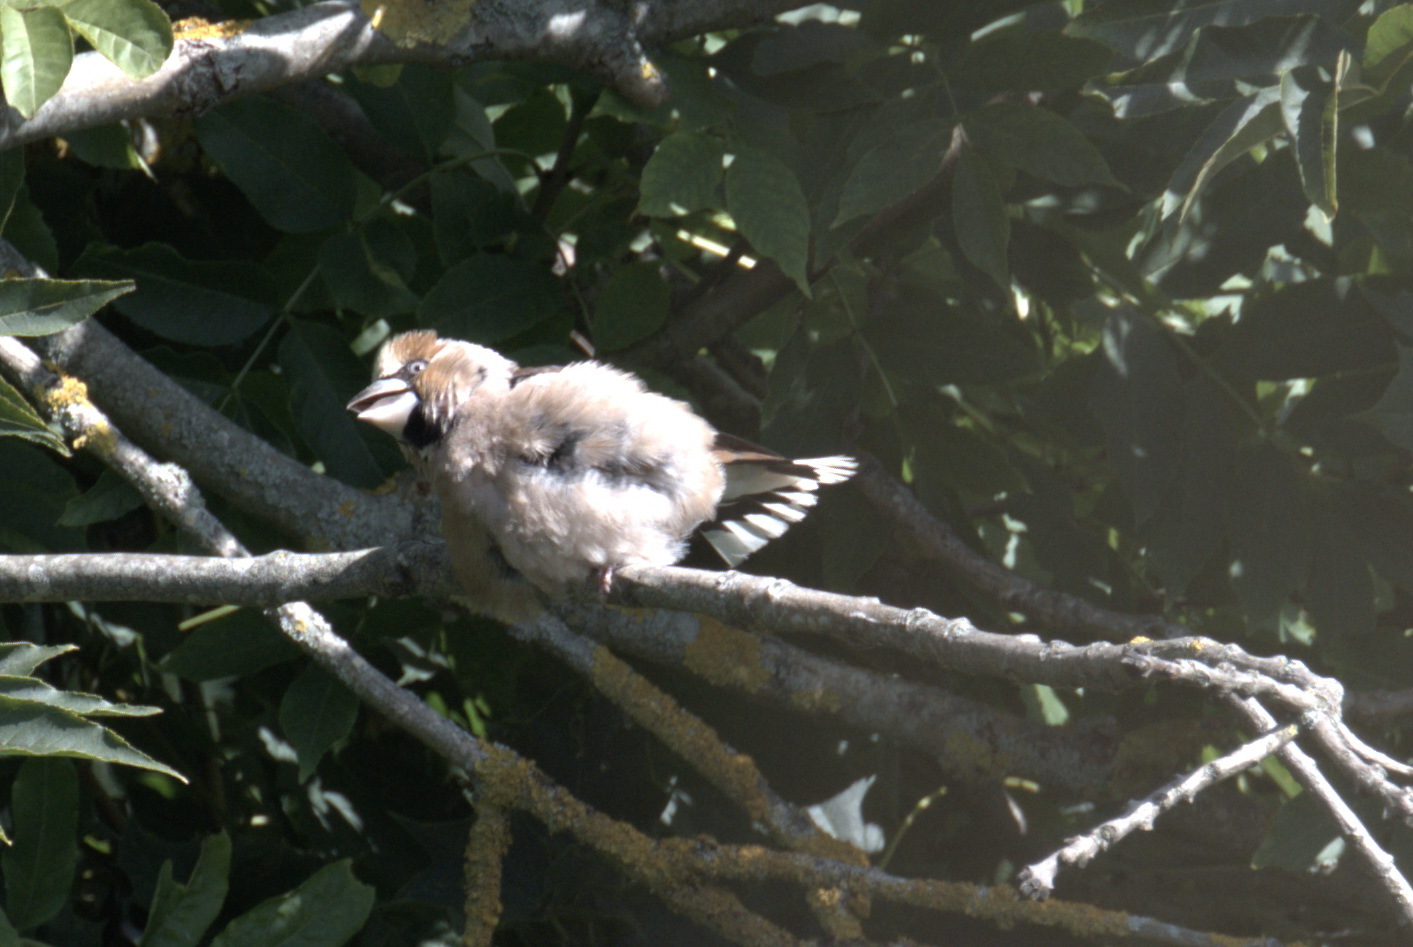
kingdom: Animalia
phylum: Chordata
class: Aves
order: Passeriformes
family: Fringillidae
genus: Coccothraustes
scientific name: Coccothraustes coccothraustes
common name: Hawfinch
